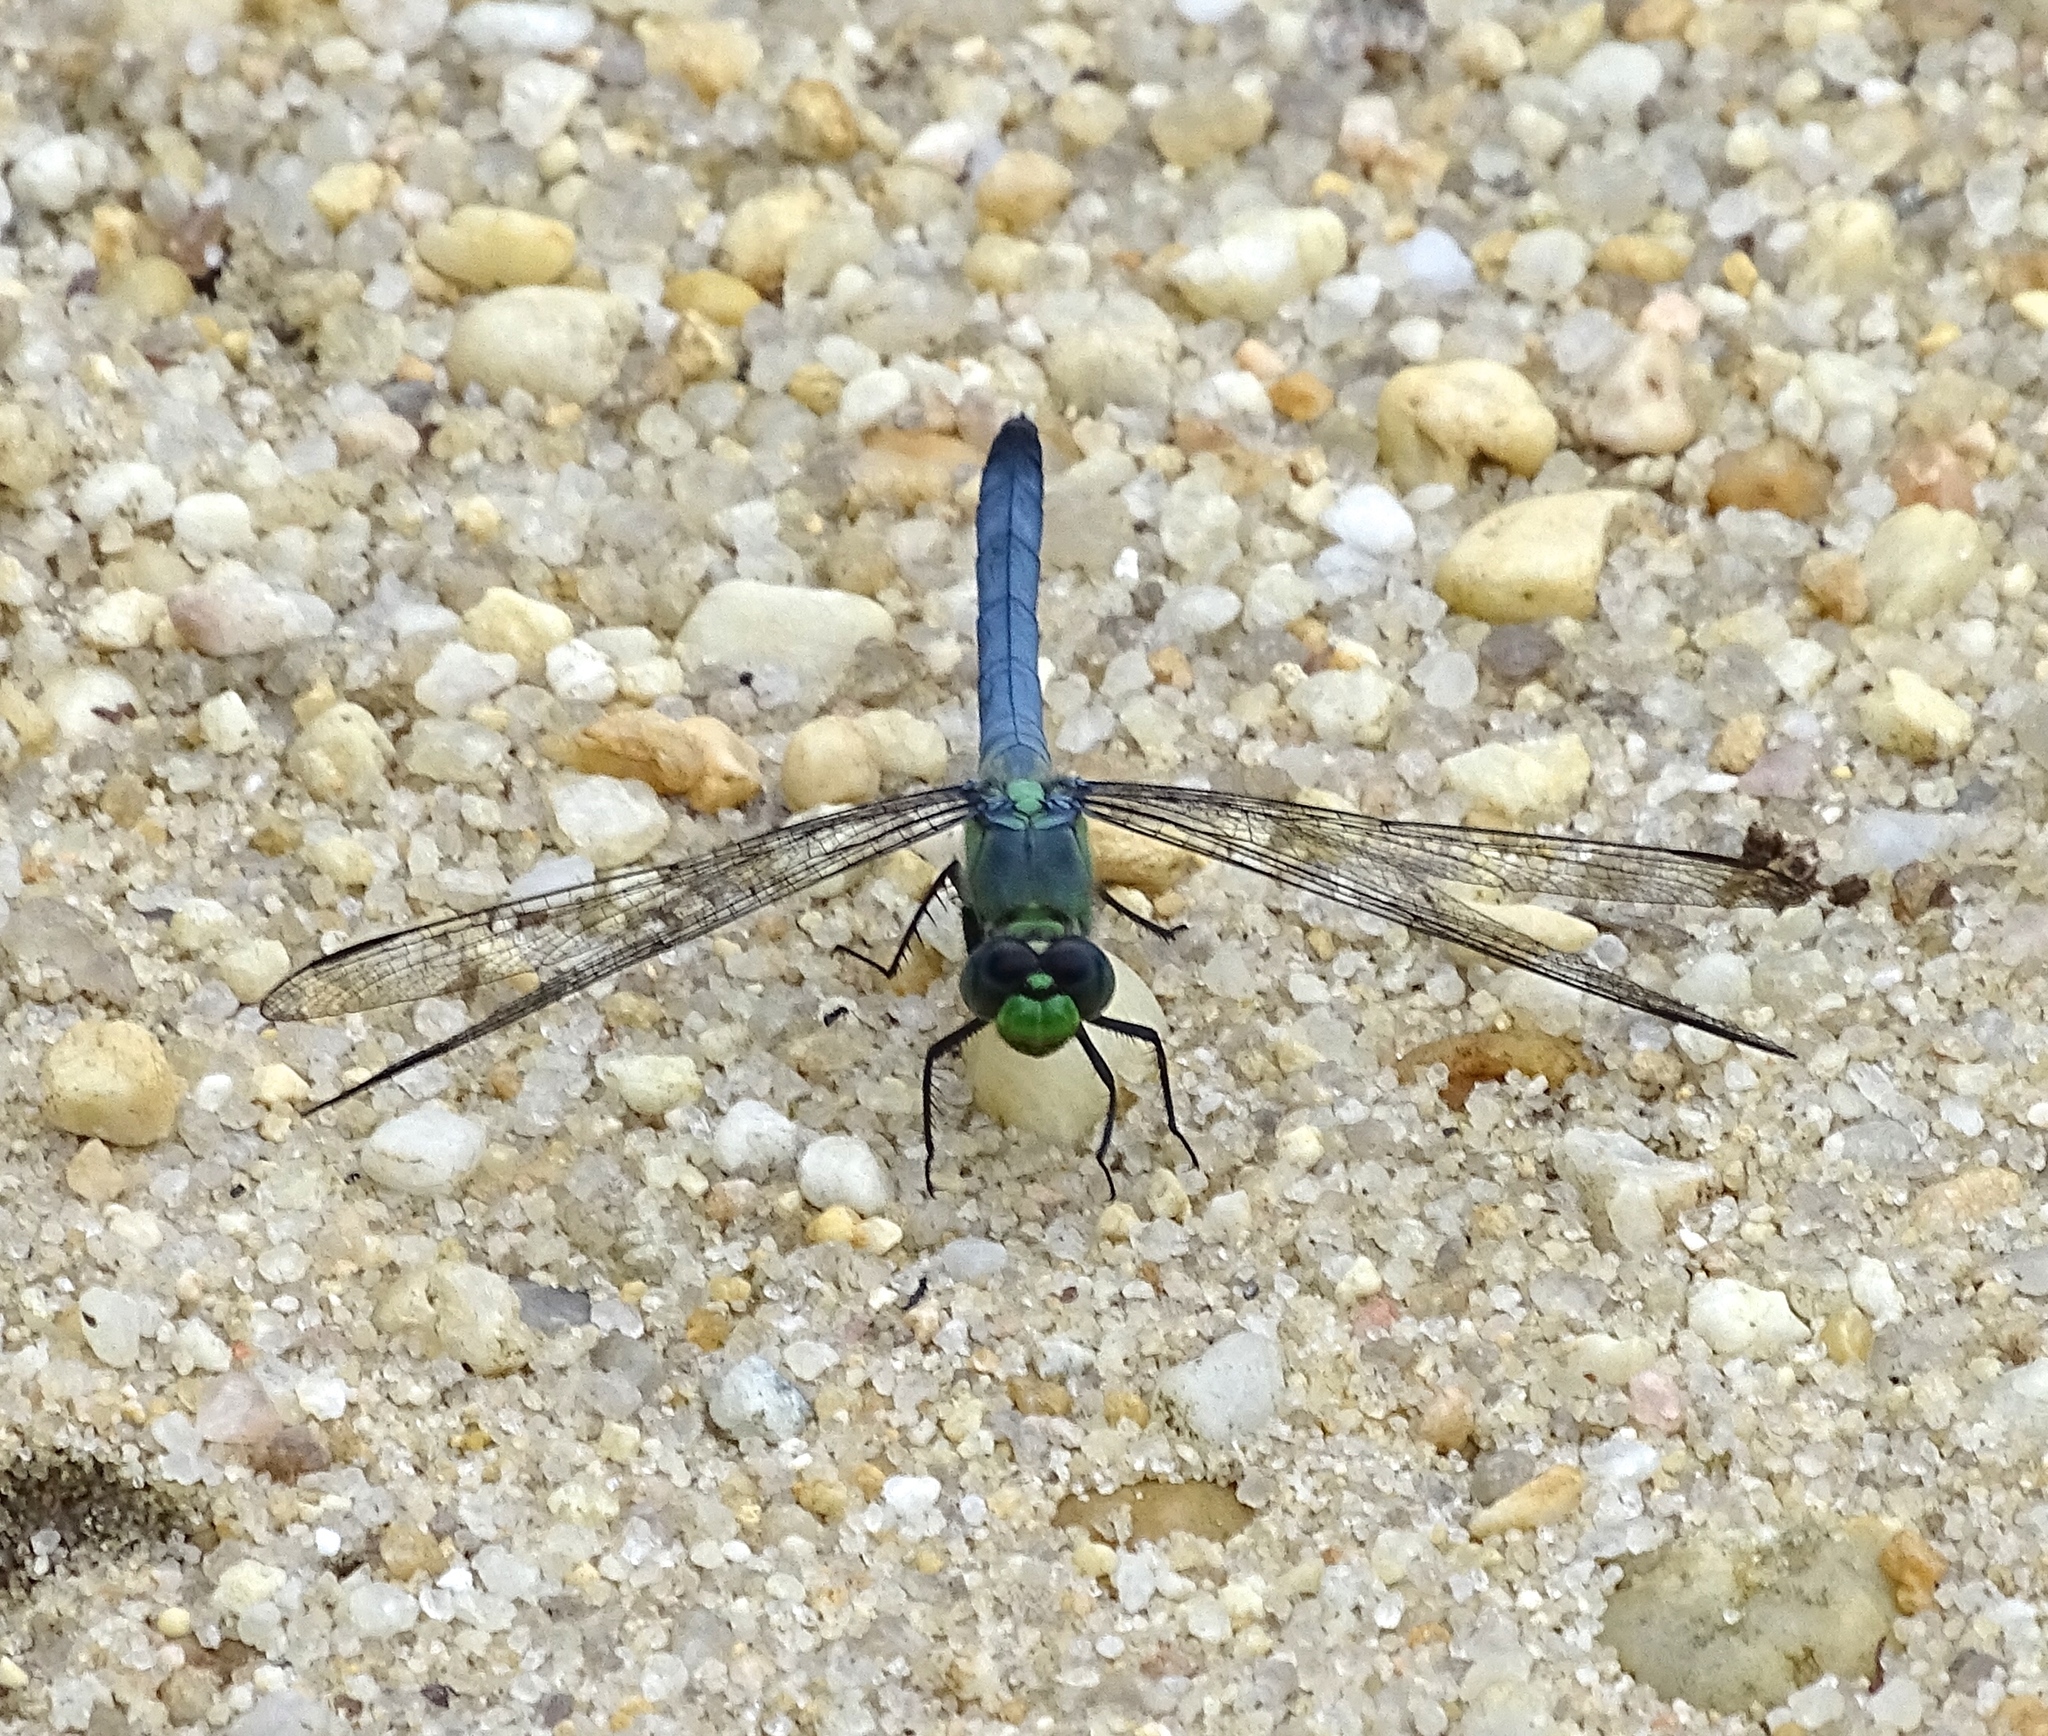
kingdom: Animalia
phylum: Arthropoda
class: Insecta
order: Odonata
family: Libellulidae
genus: Erythemis
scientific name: Erythemis simplicicollis
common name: Eastern pondhawk
